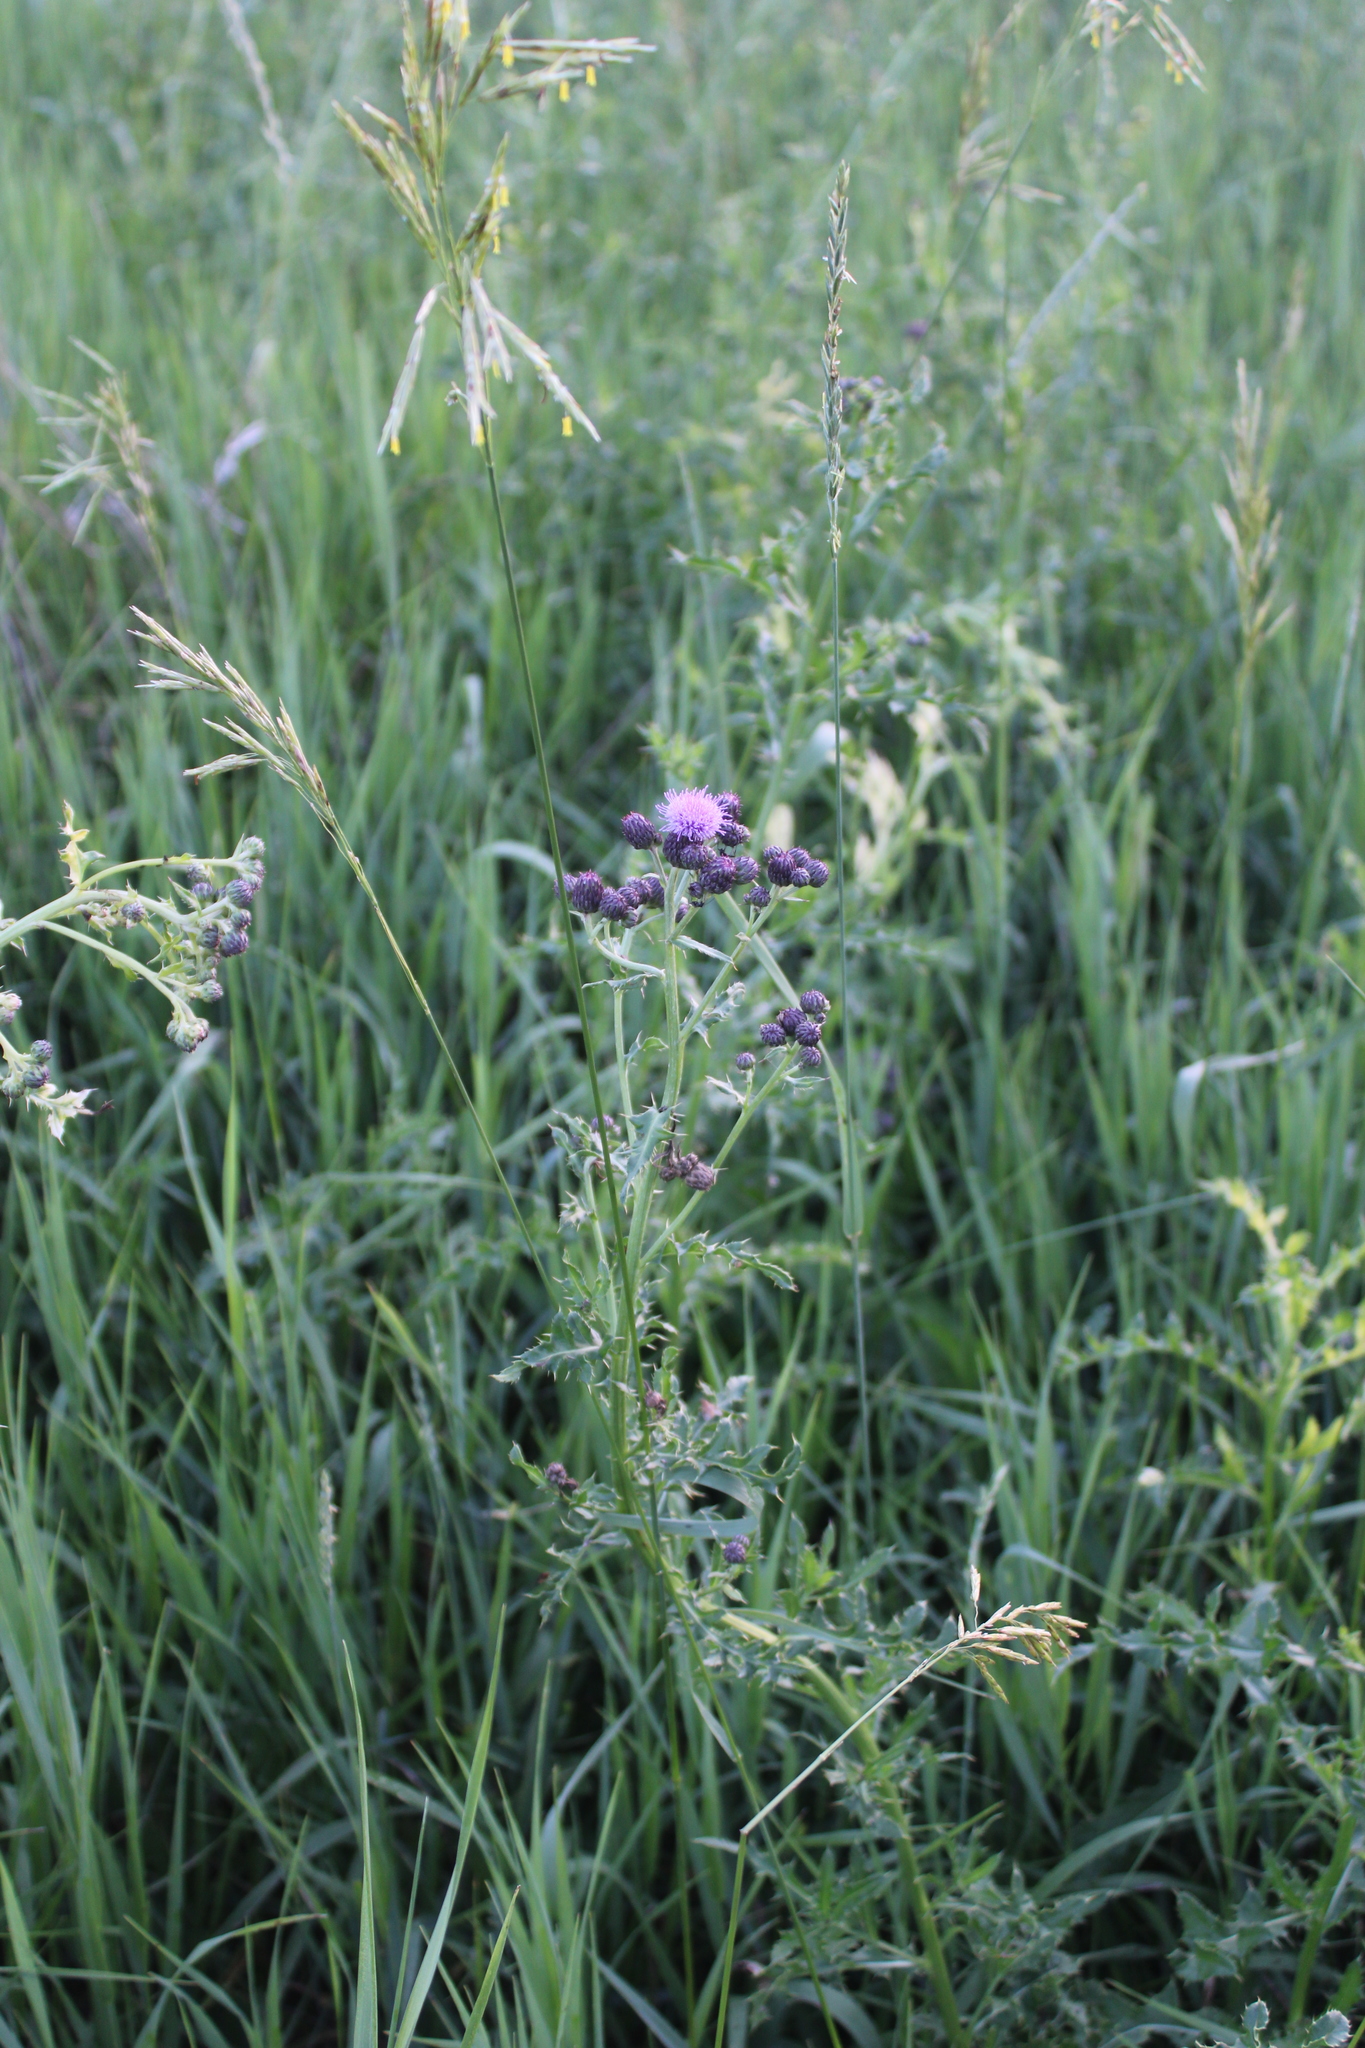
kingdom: Plantae
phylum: Tracheophyta
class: Magnoliopsida
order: Asterales
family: Asteraceae
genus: Cirsium
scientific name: Cirsium arvense
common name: Creeping thistle
